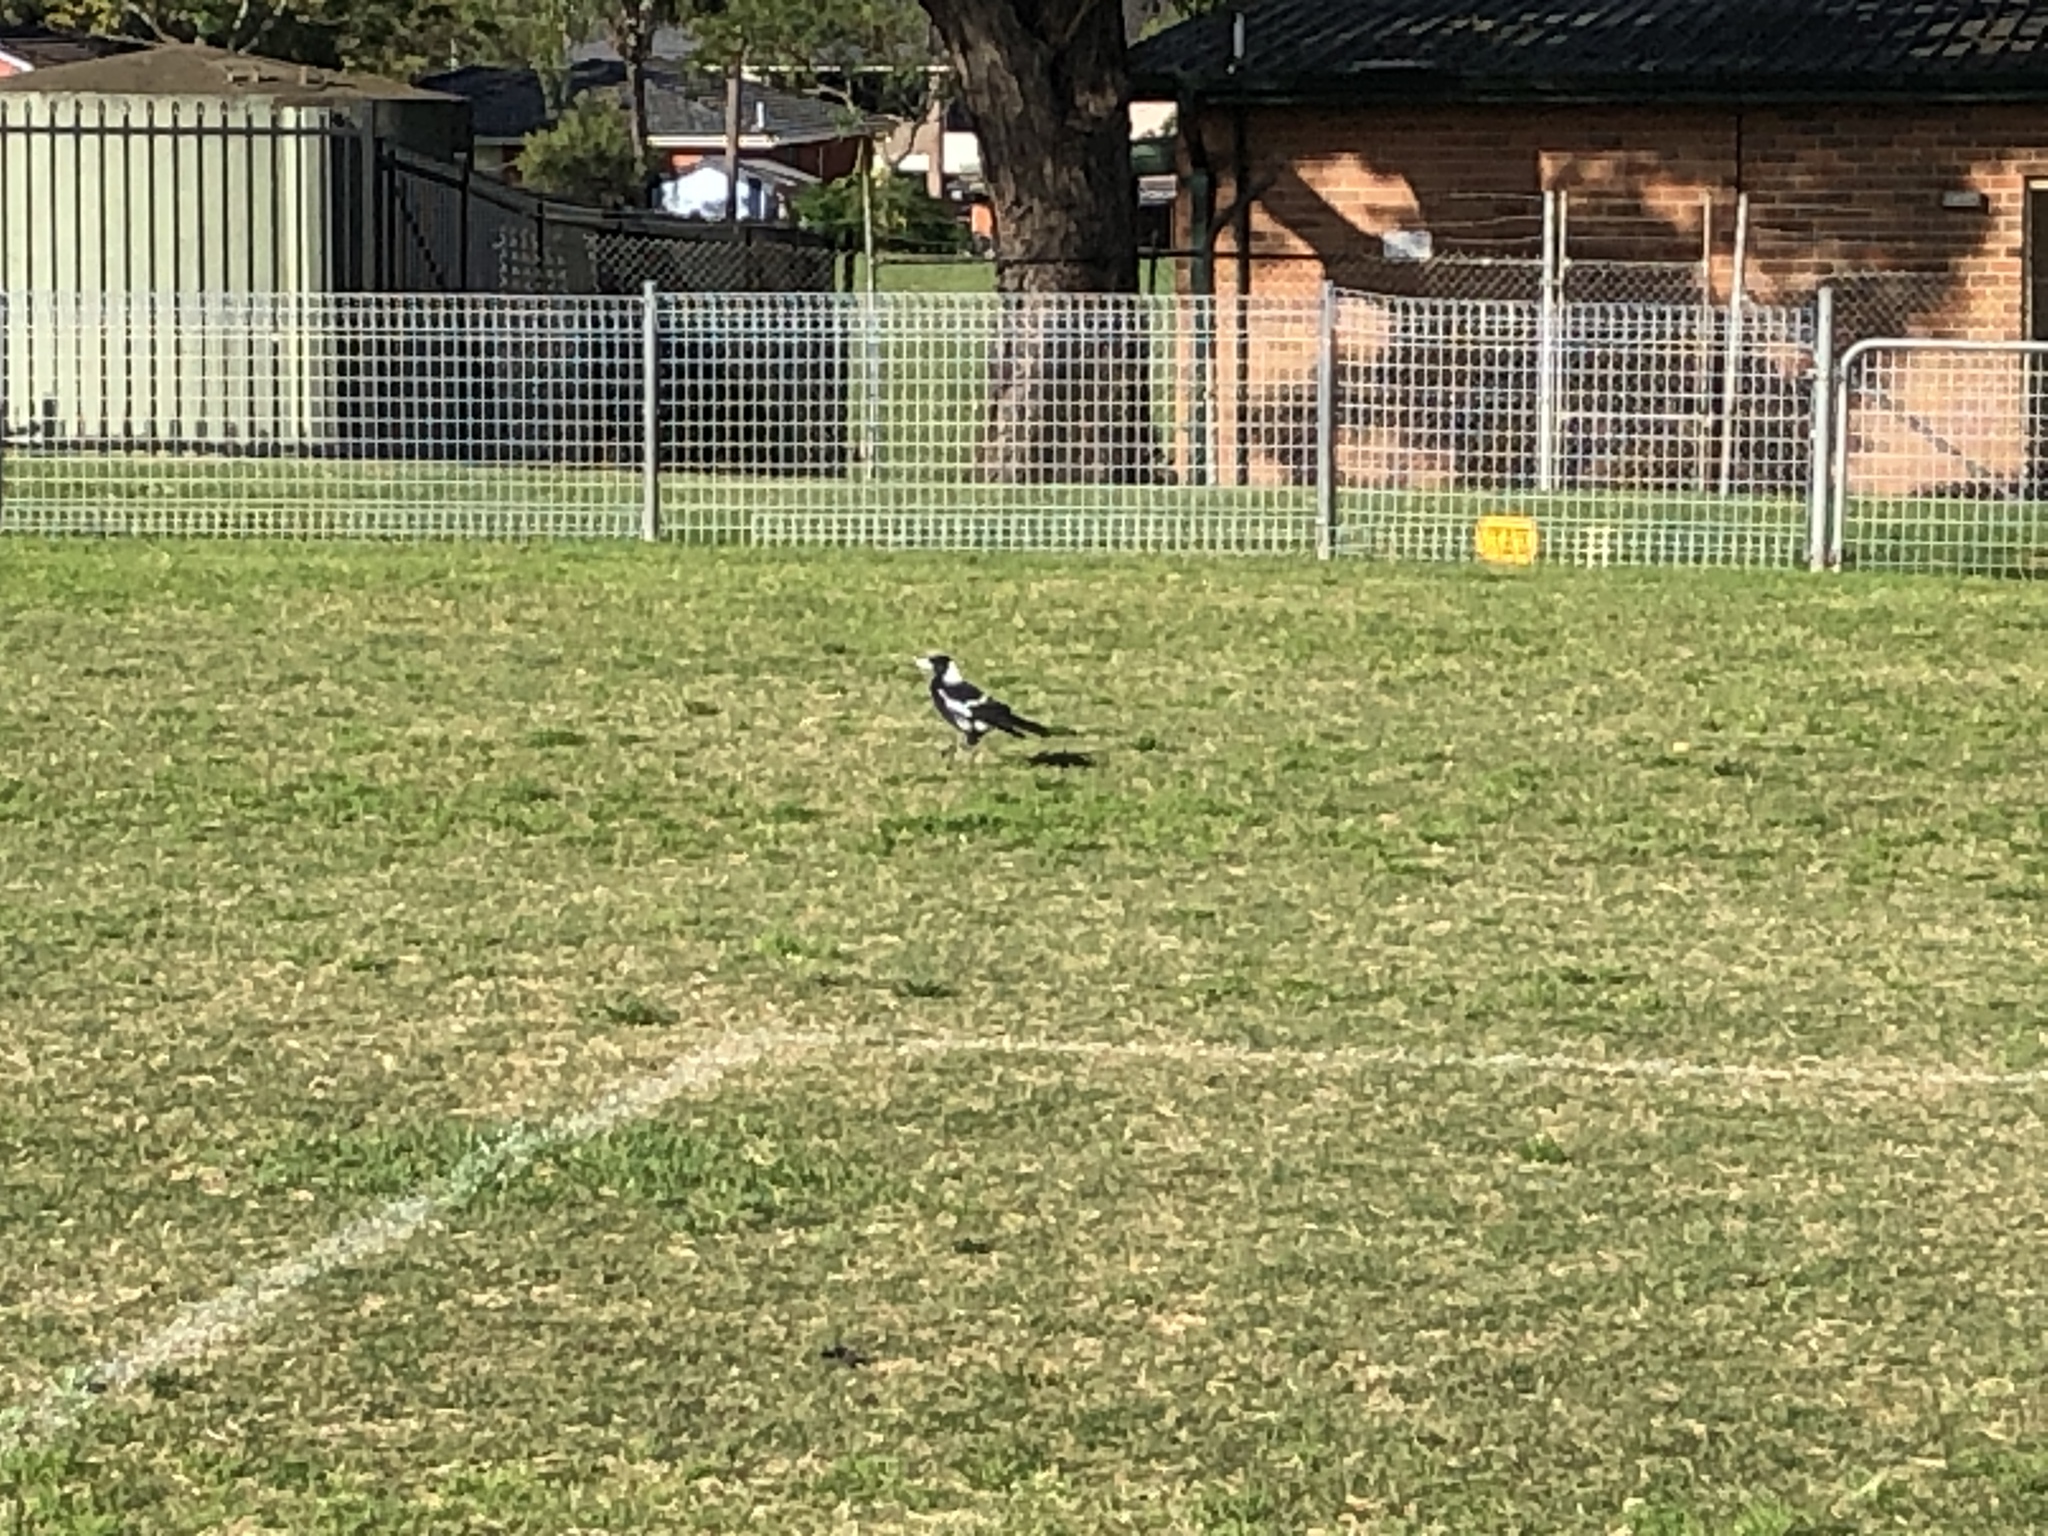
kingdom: Animalia
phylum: Chordata
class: Aves
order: Passeriformes
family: Cracticidae
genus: Gymnorhina
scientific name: Gymnorhina tibicen
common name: Australian magpie
